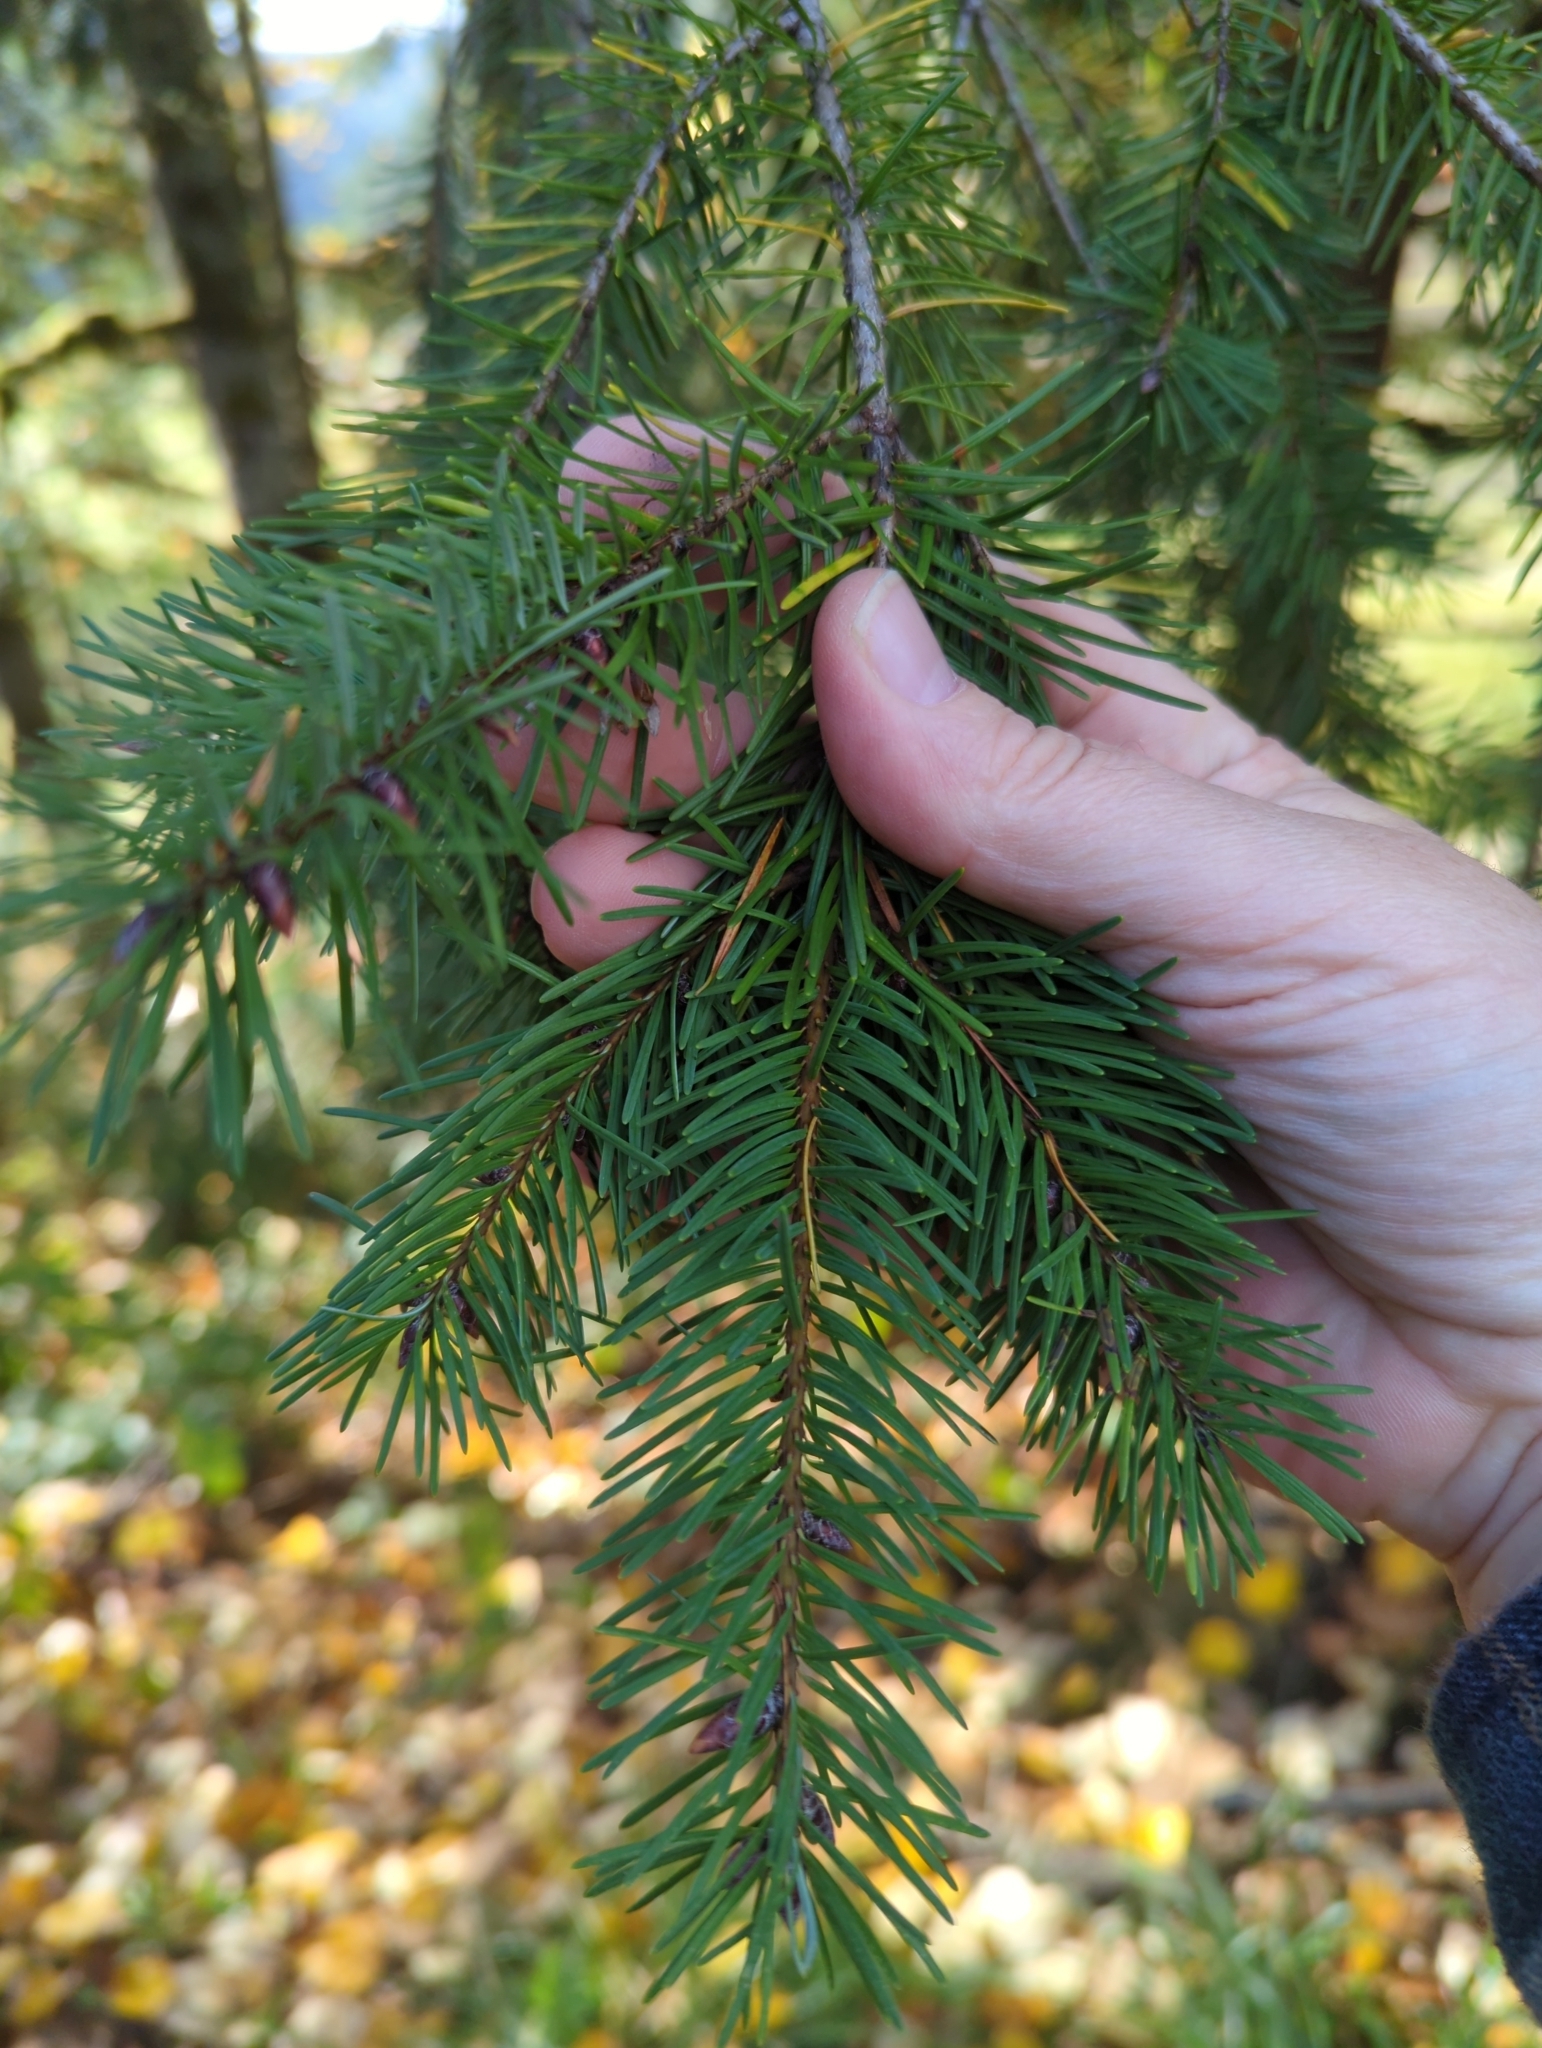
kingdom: Plantae
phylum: Tracheophyta
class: Pinopsida
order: Pinales
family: Pinaceae
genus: Pseudotsuga
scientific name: Pseudotsuga menziesii
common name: Douglas fir
